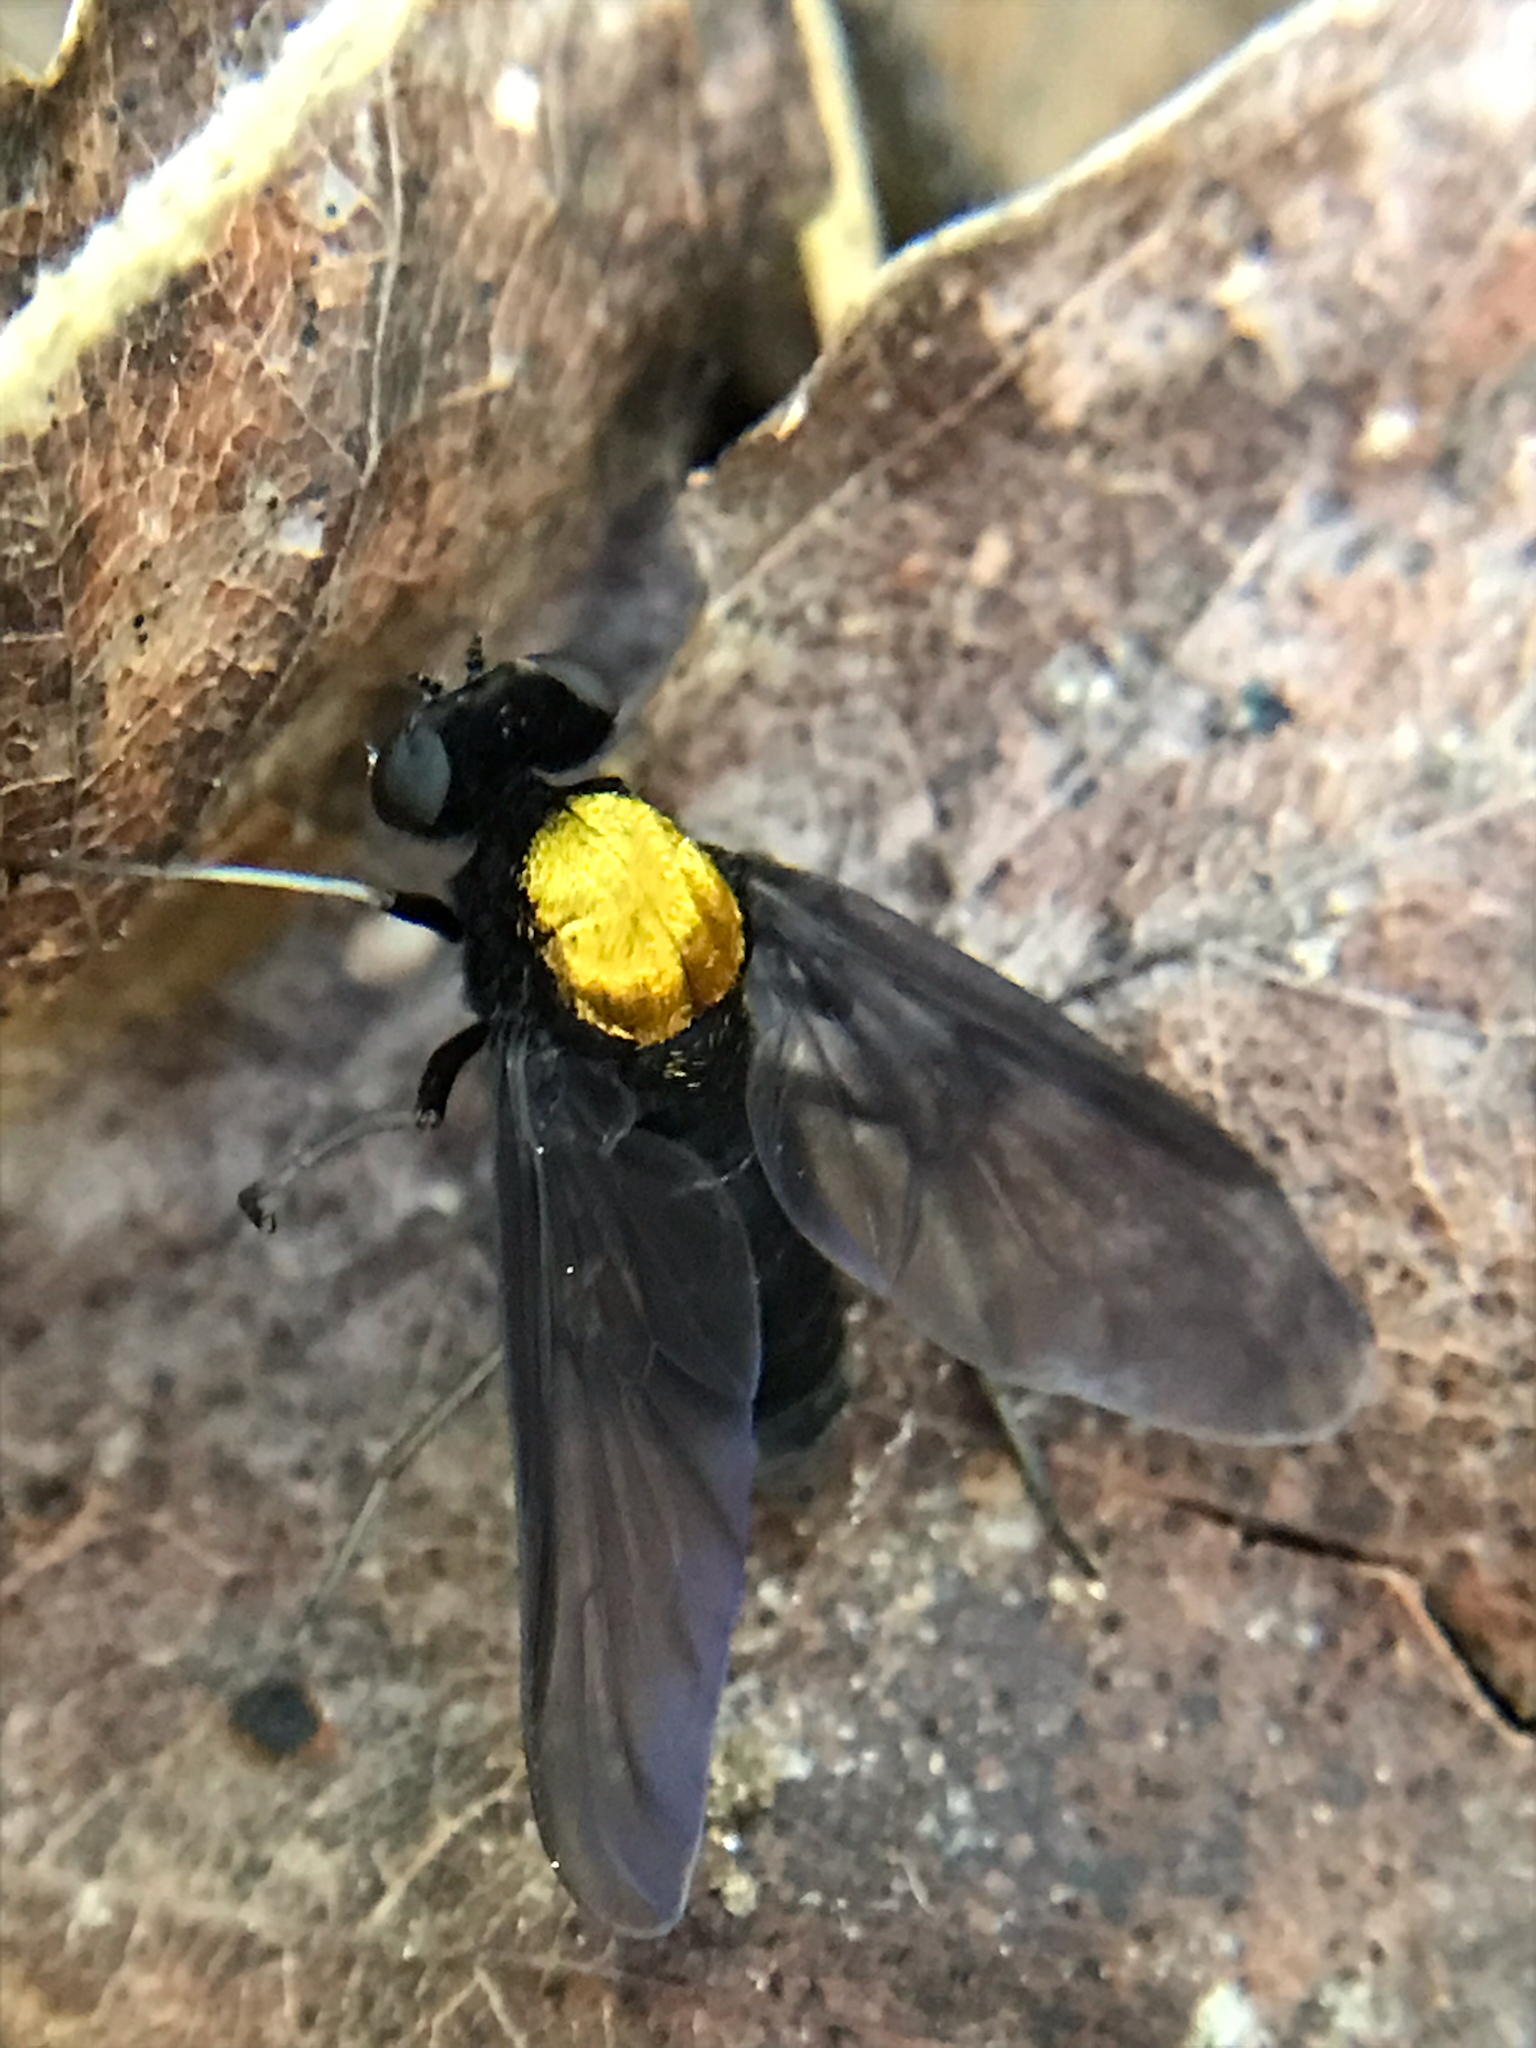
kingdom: Animalia
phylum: Arthropoda
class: Insecta
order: Diptera
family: Rhagionidae
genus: Chrysopilus
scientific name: Chrysopilus thoracicus
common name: Golden-backed snipe fly
